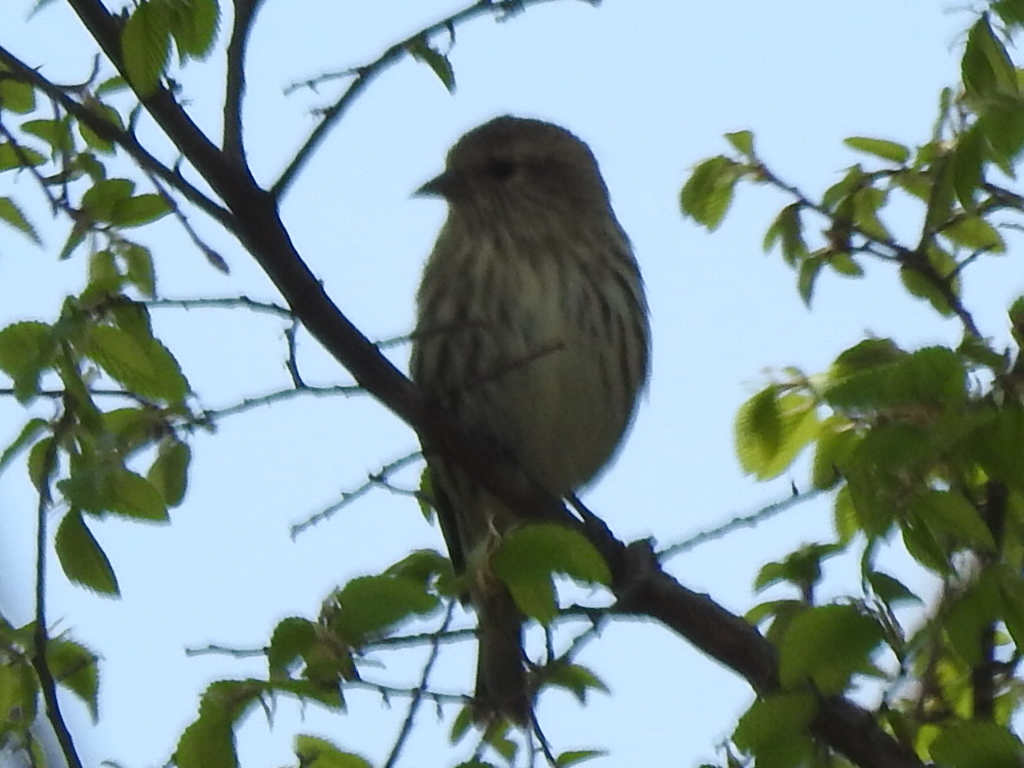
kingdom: Animalia
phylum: Chordata
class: Aves
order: Passeriformes
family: Fringillidae
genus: Spinus
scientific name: Spinus pinus
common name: Pine siskin
